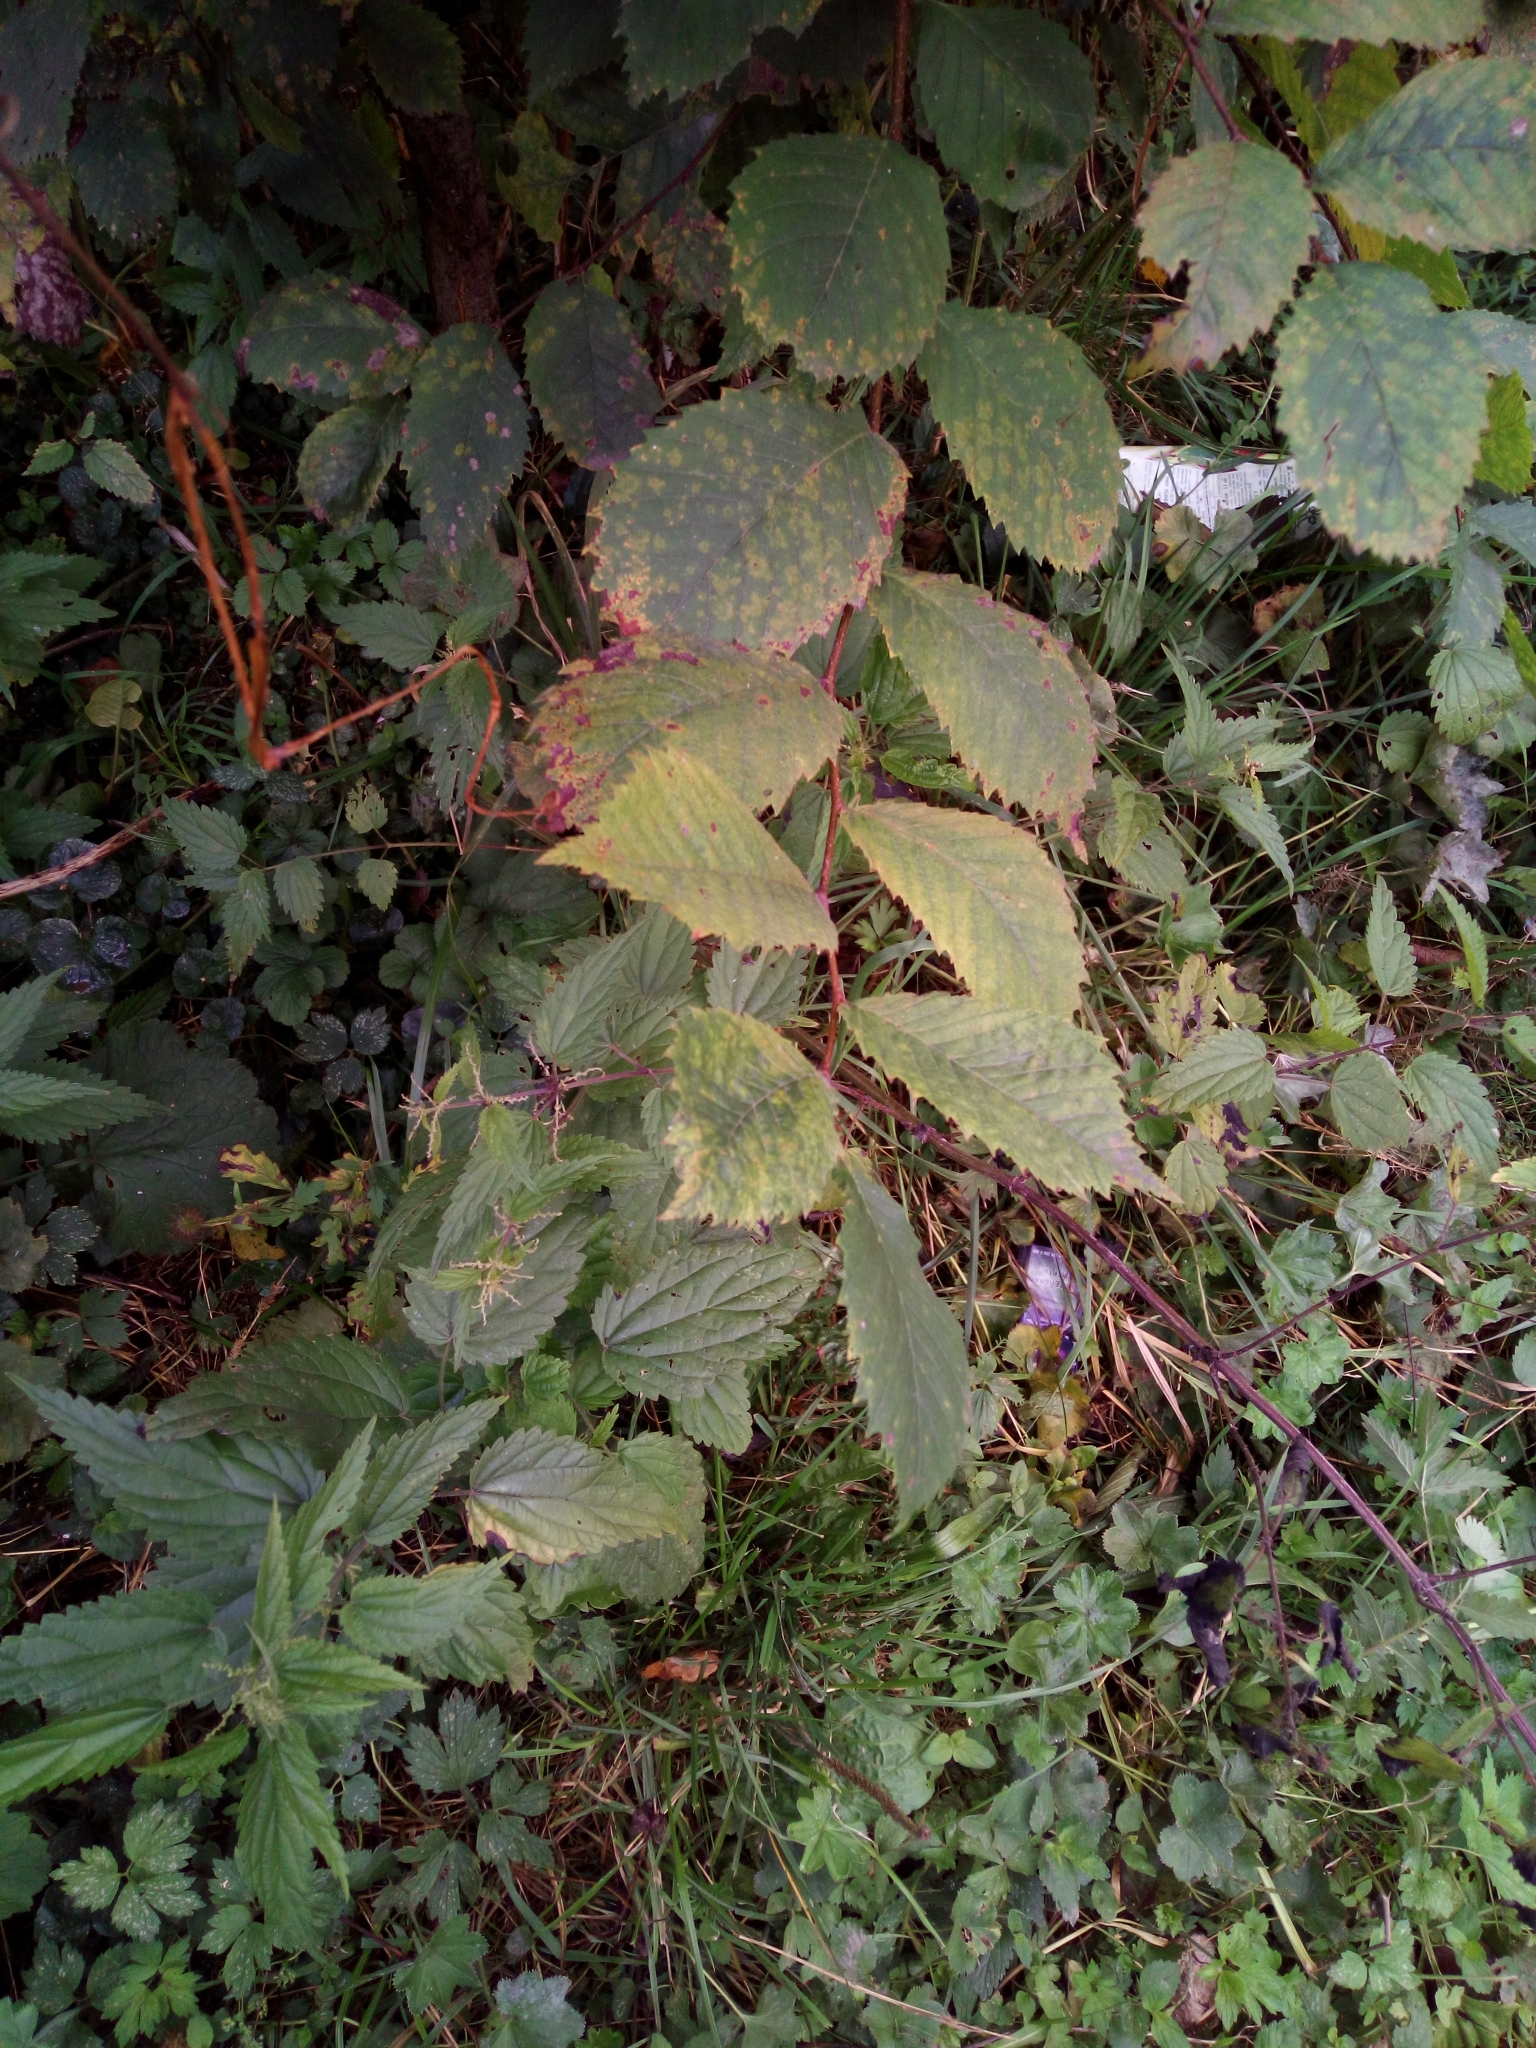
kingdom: Plantae
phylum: Tracheophyta
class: Magnoliopsida
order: Rosales
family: Ulmaceae
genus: Ulmus
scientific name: Ulmus glabra
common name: Wych elm
